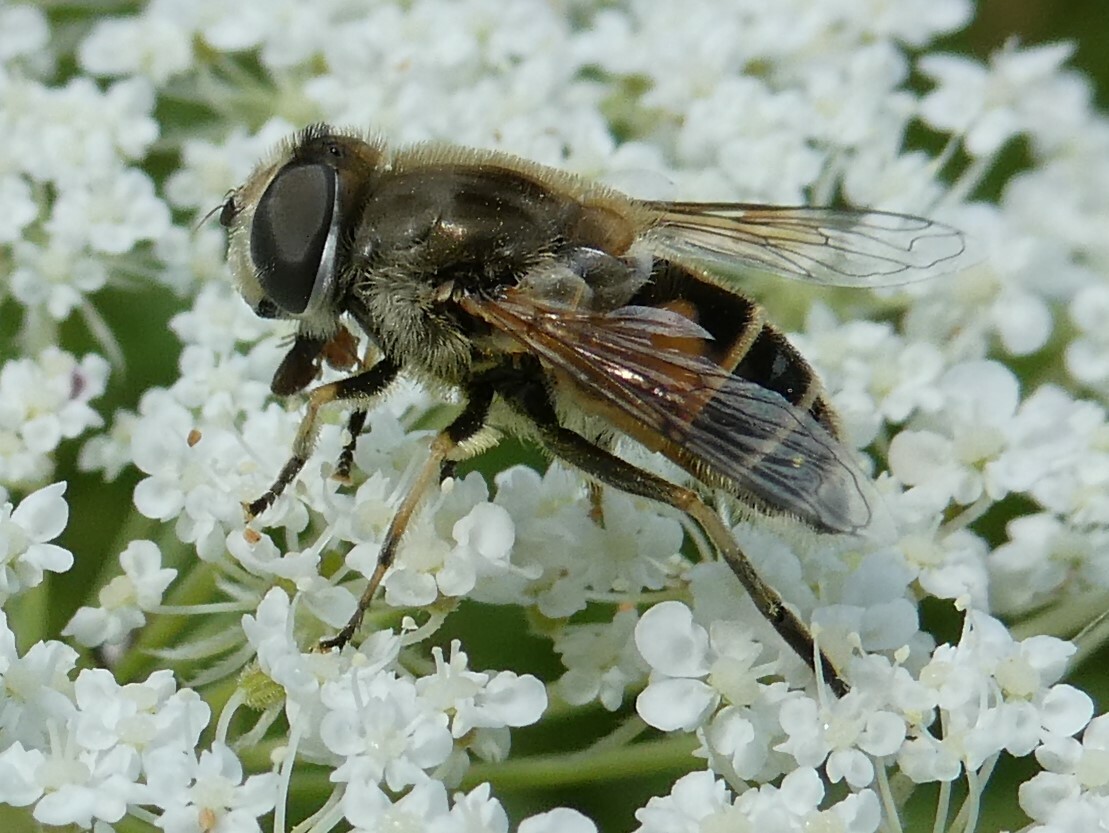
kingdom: Animalia
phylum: Arthropoda
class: Insecta
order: Diptera
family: Syrphidae
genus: Eristalis
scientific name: Eristalis arbustorum
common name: Hover fly
